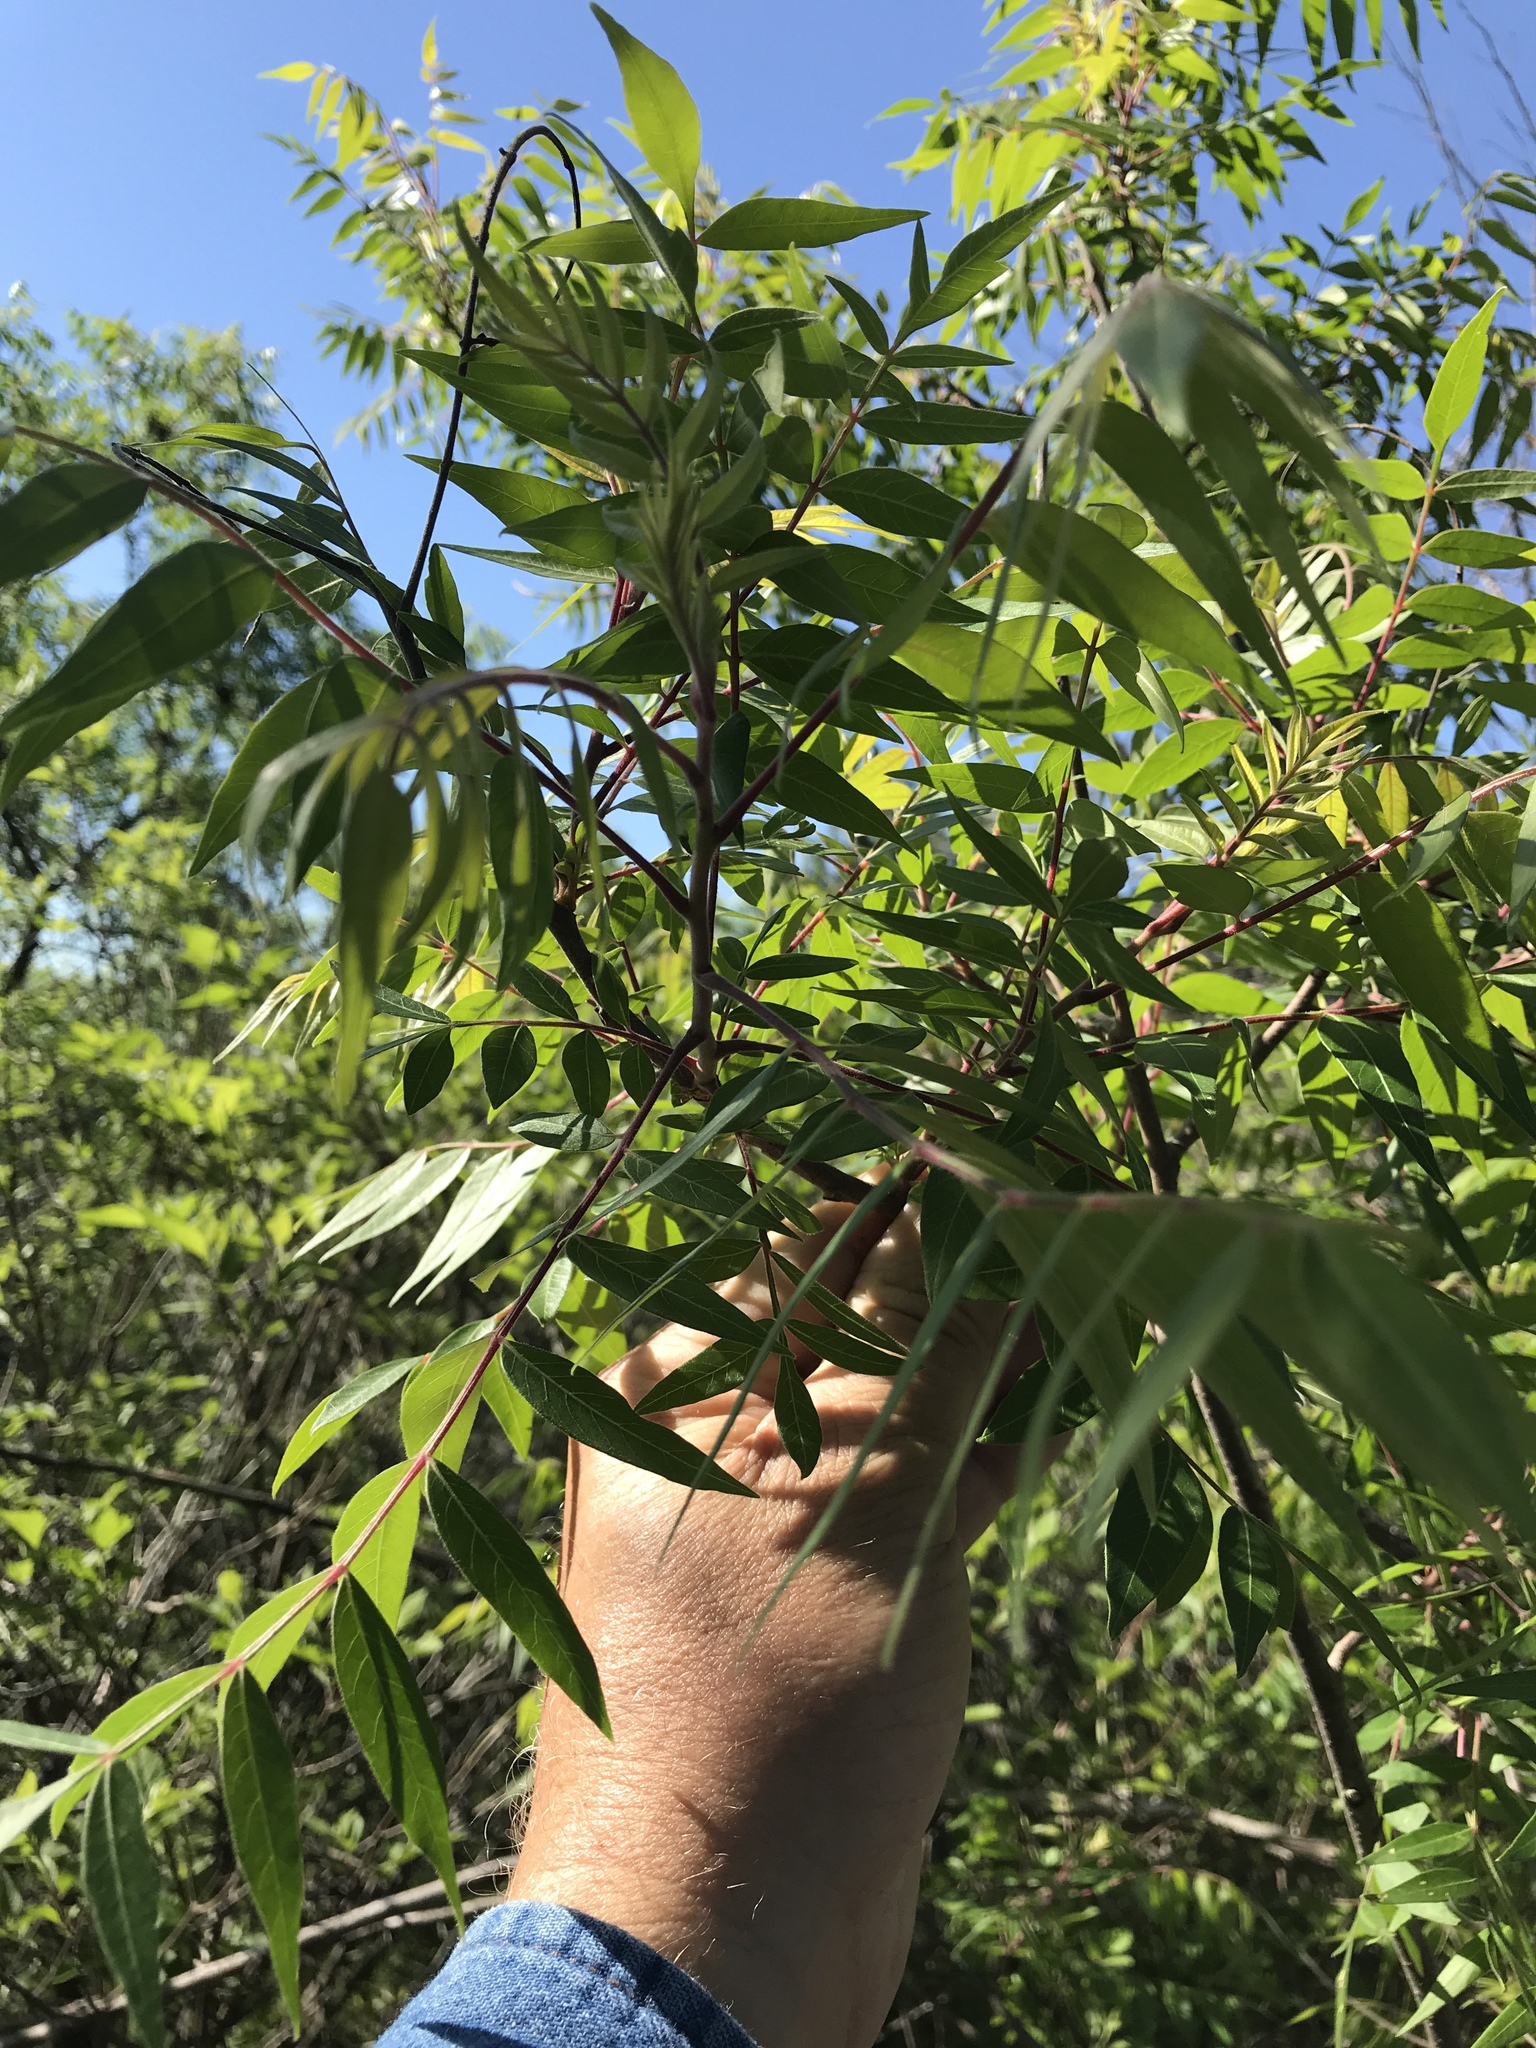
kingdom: Plantae
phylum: Tracheophyta
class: Magnoliopsida
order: Sapindales
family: Anacardiaceae
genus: Rhus
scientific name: Rhus lanceolata
